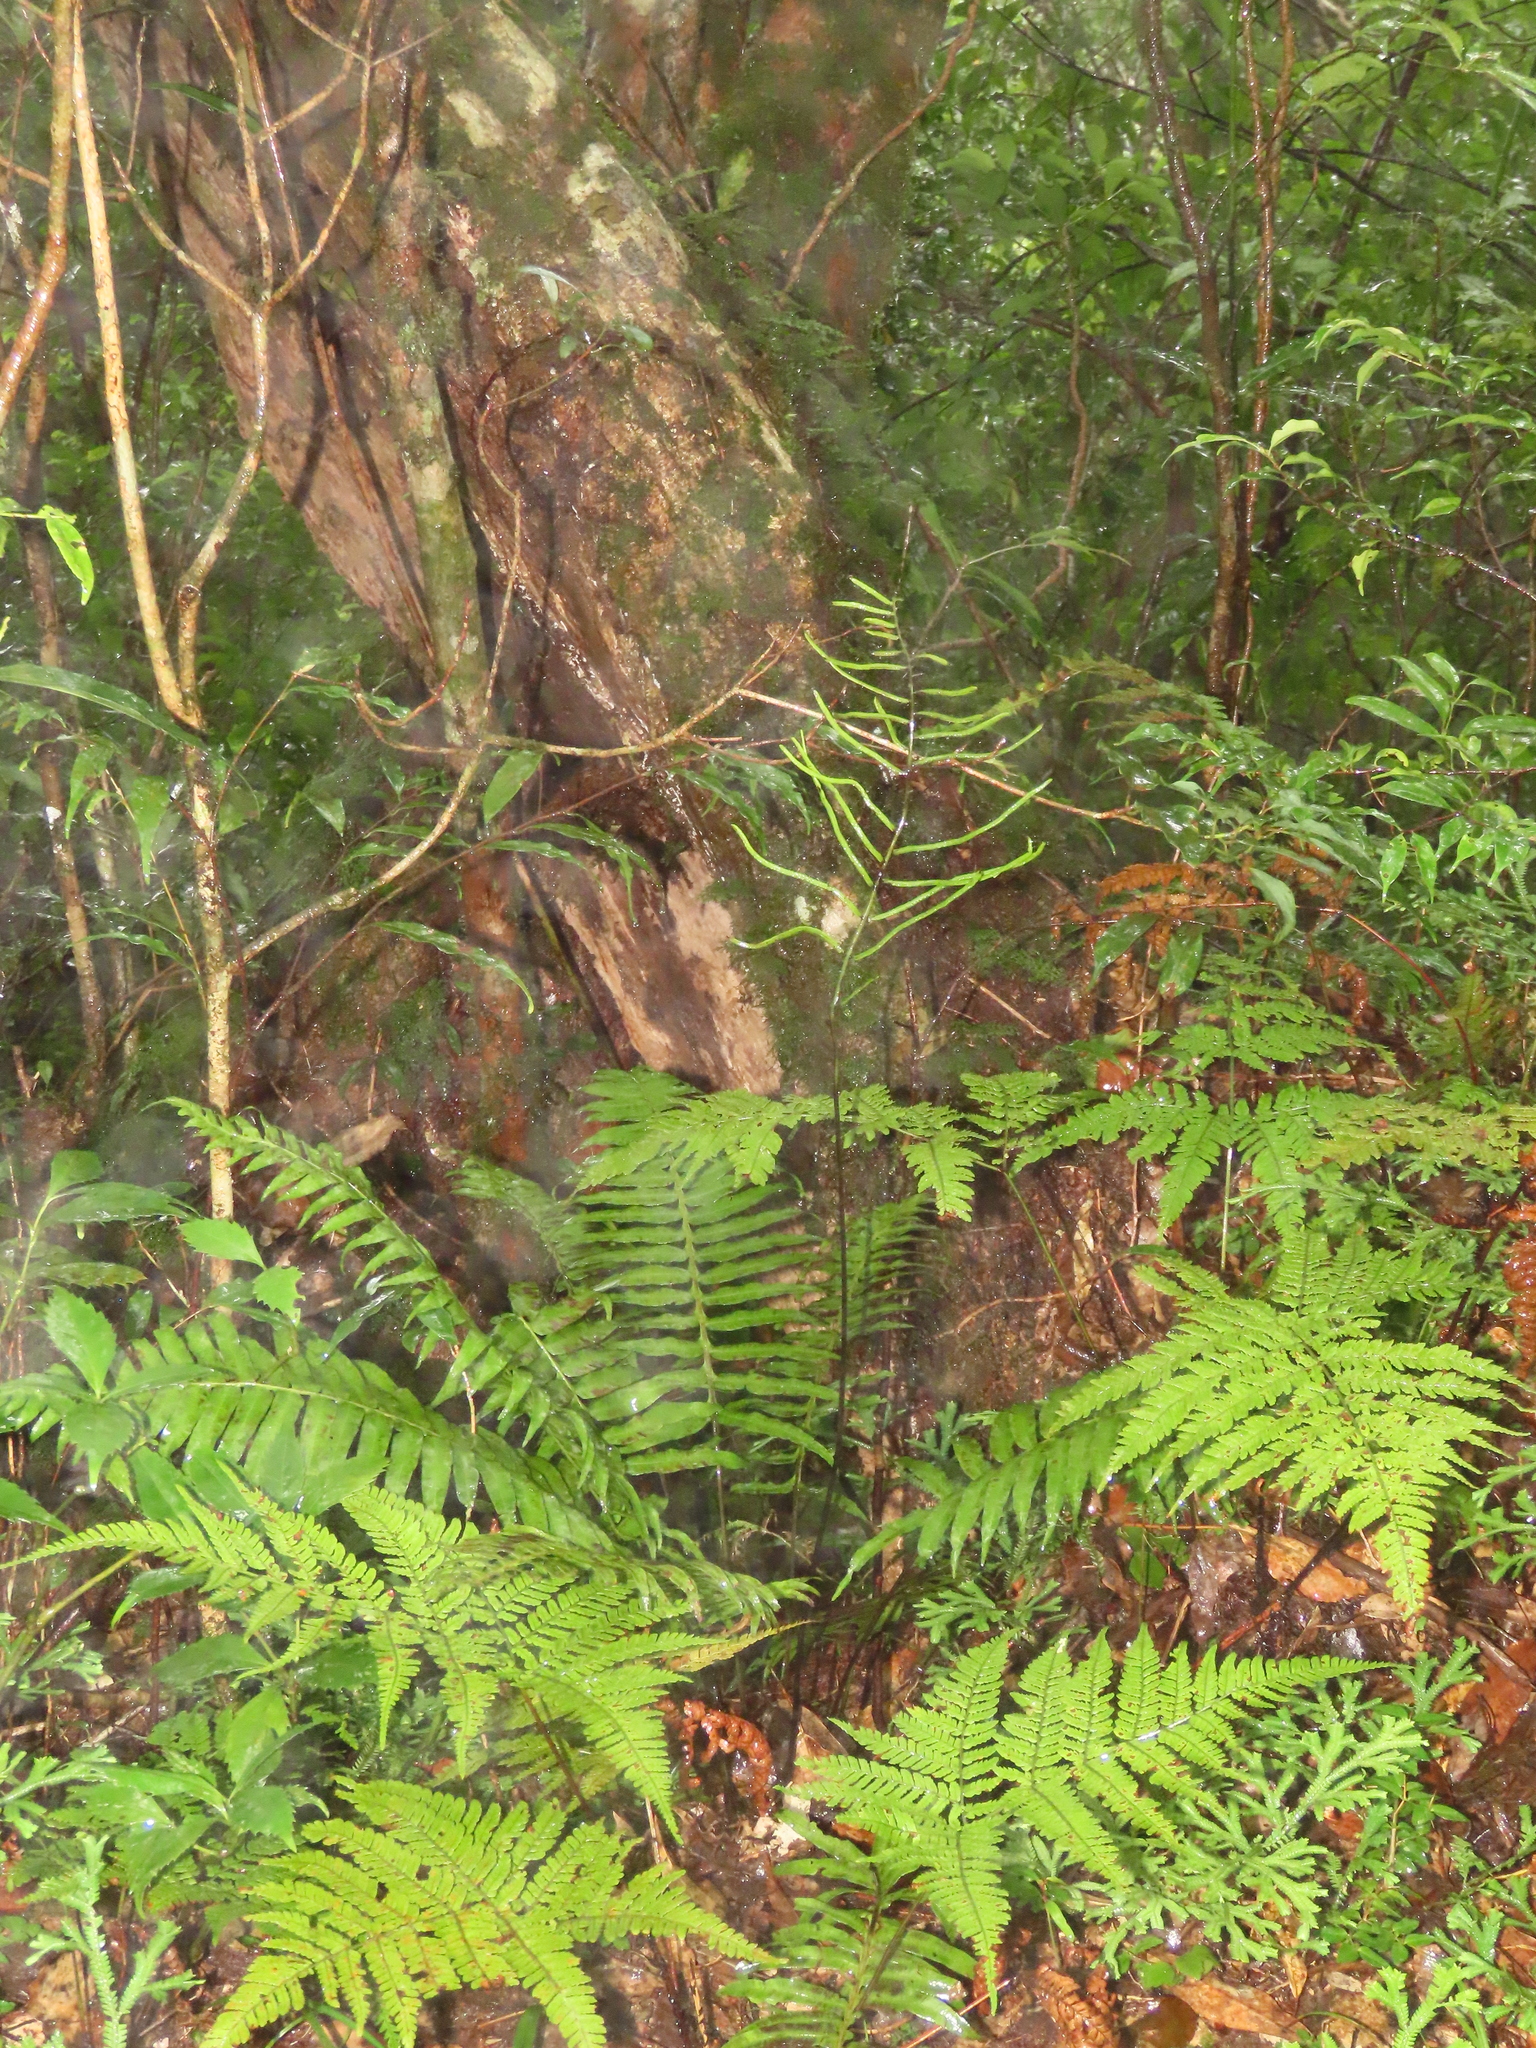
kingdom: Plantae
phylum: Tracheophyta
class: Polypodiopsida
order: Cyatheales
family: Plagiogyriaceae
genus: Plagiogyria
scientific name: Plagiogyria falcata
